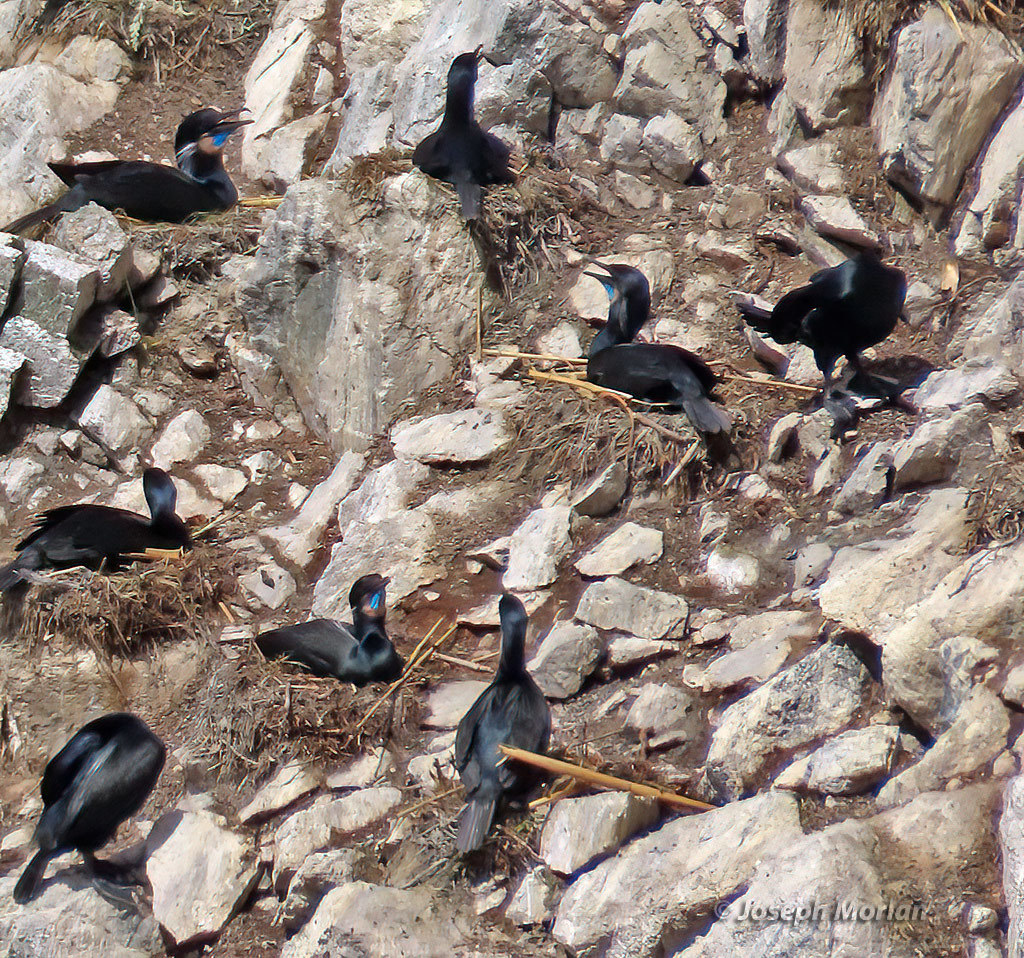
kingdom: Animalia
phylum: Chordata
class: Aves
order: Suliformes
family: Phalacrocoracidae
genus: Urile
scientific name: Urile penicillatus
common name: Brandt's cormorant
